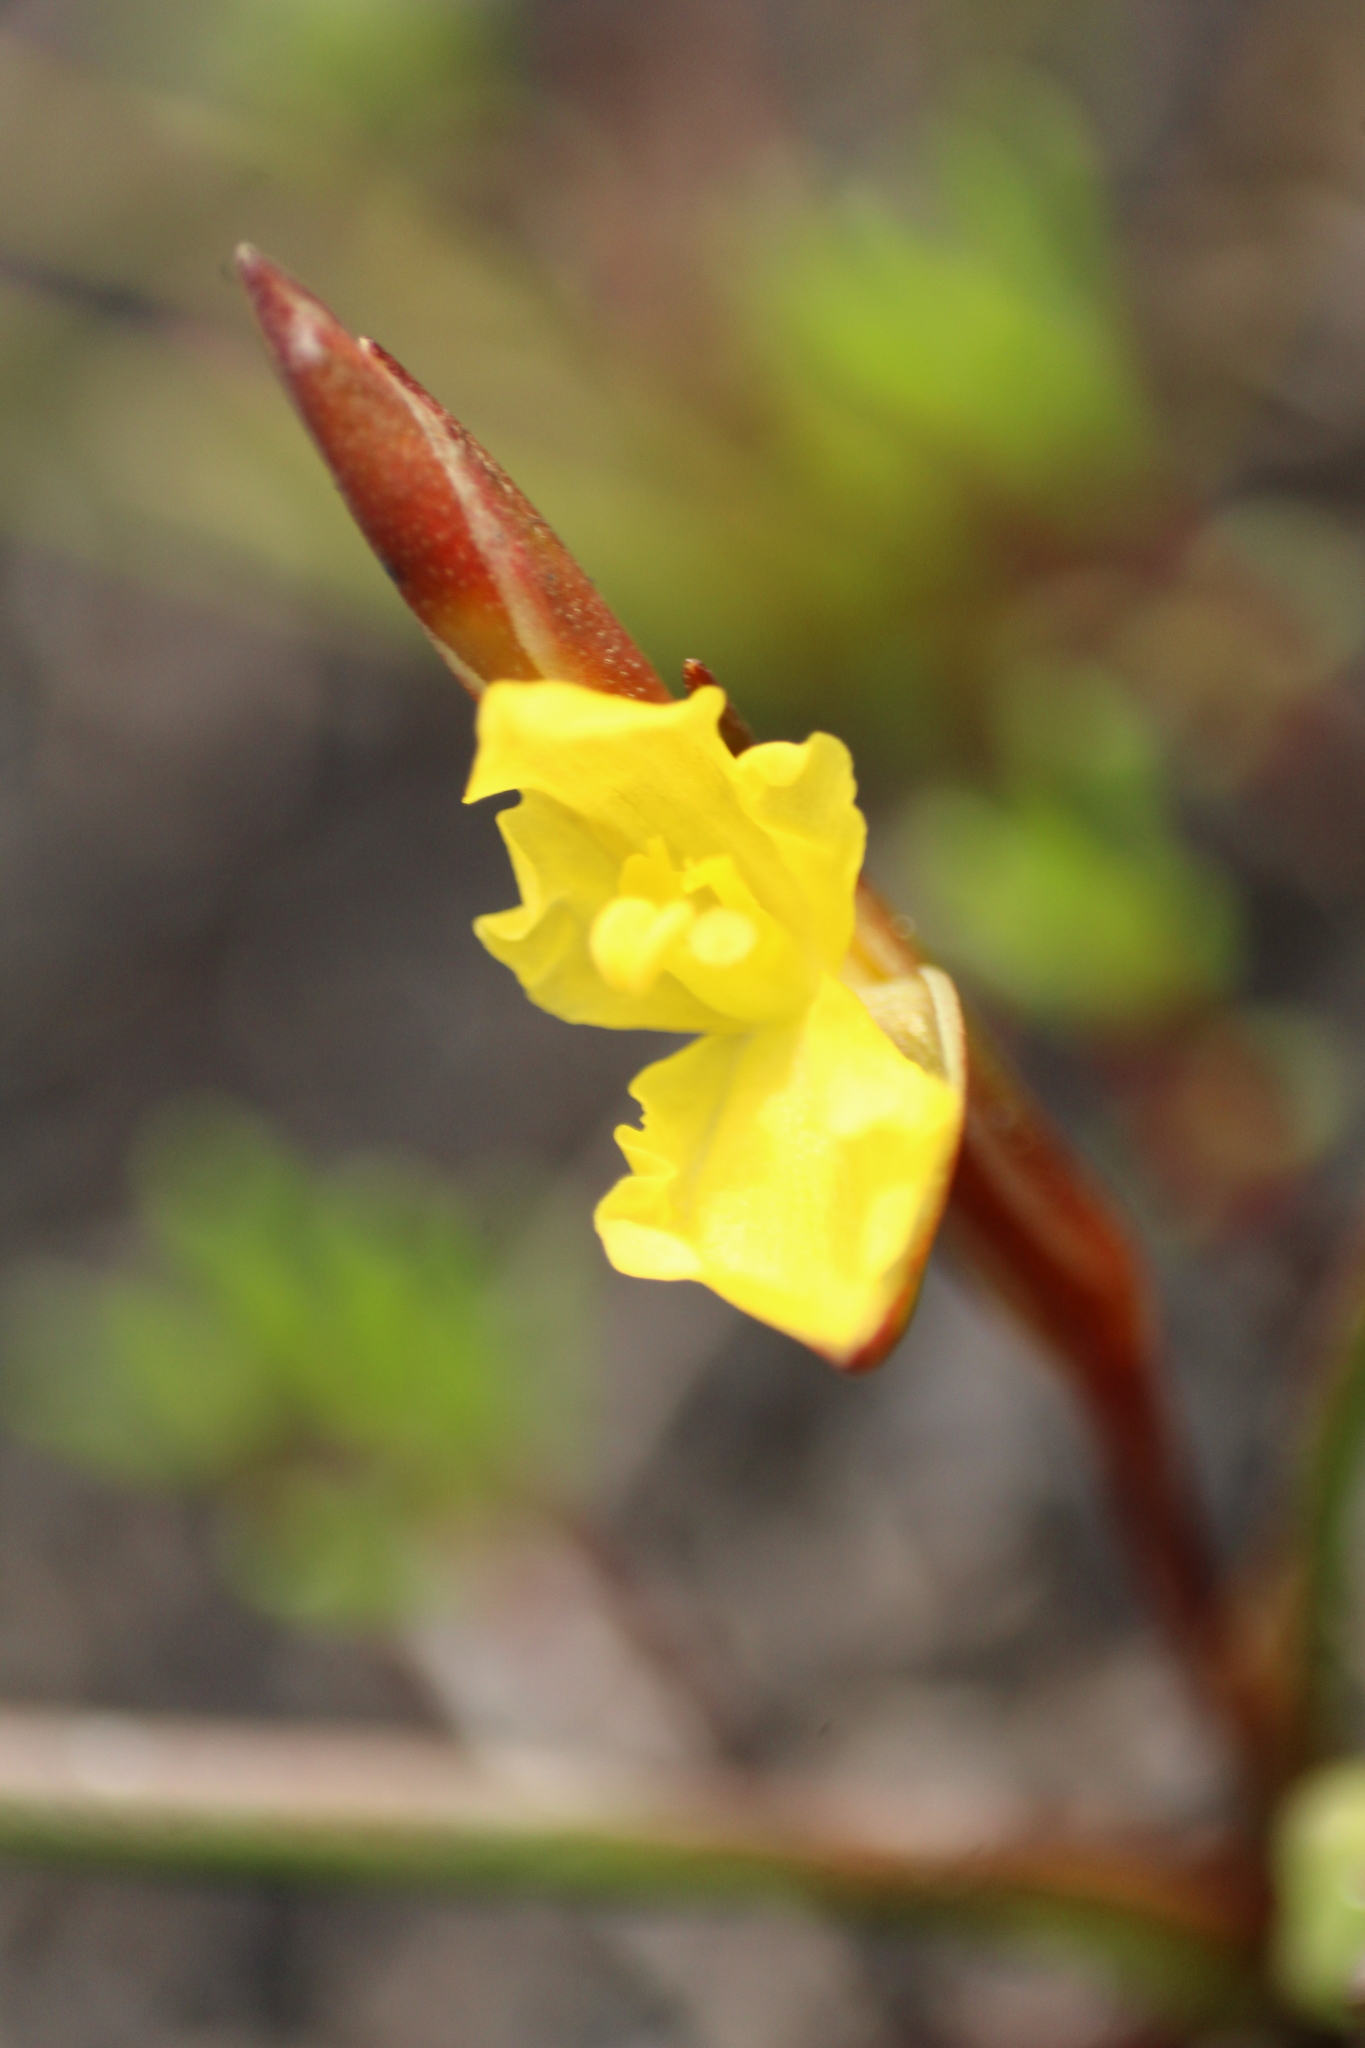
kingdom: Plantae
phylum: Tracheophyta
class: Liliopsida
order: Commelinales
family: Philydraceae
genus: Philydrella
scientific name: Philydrella pygmaea
